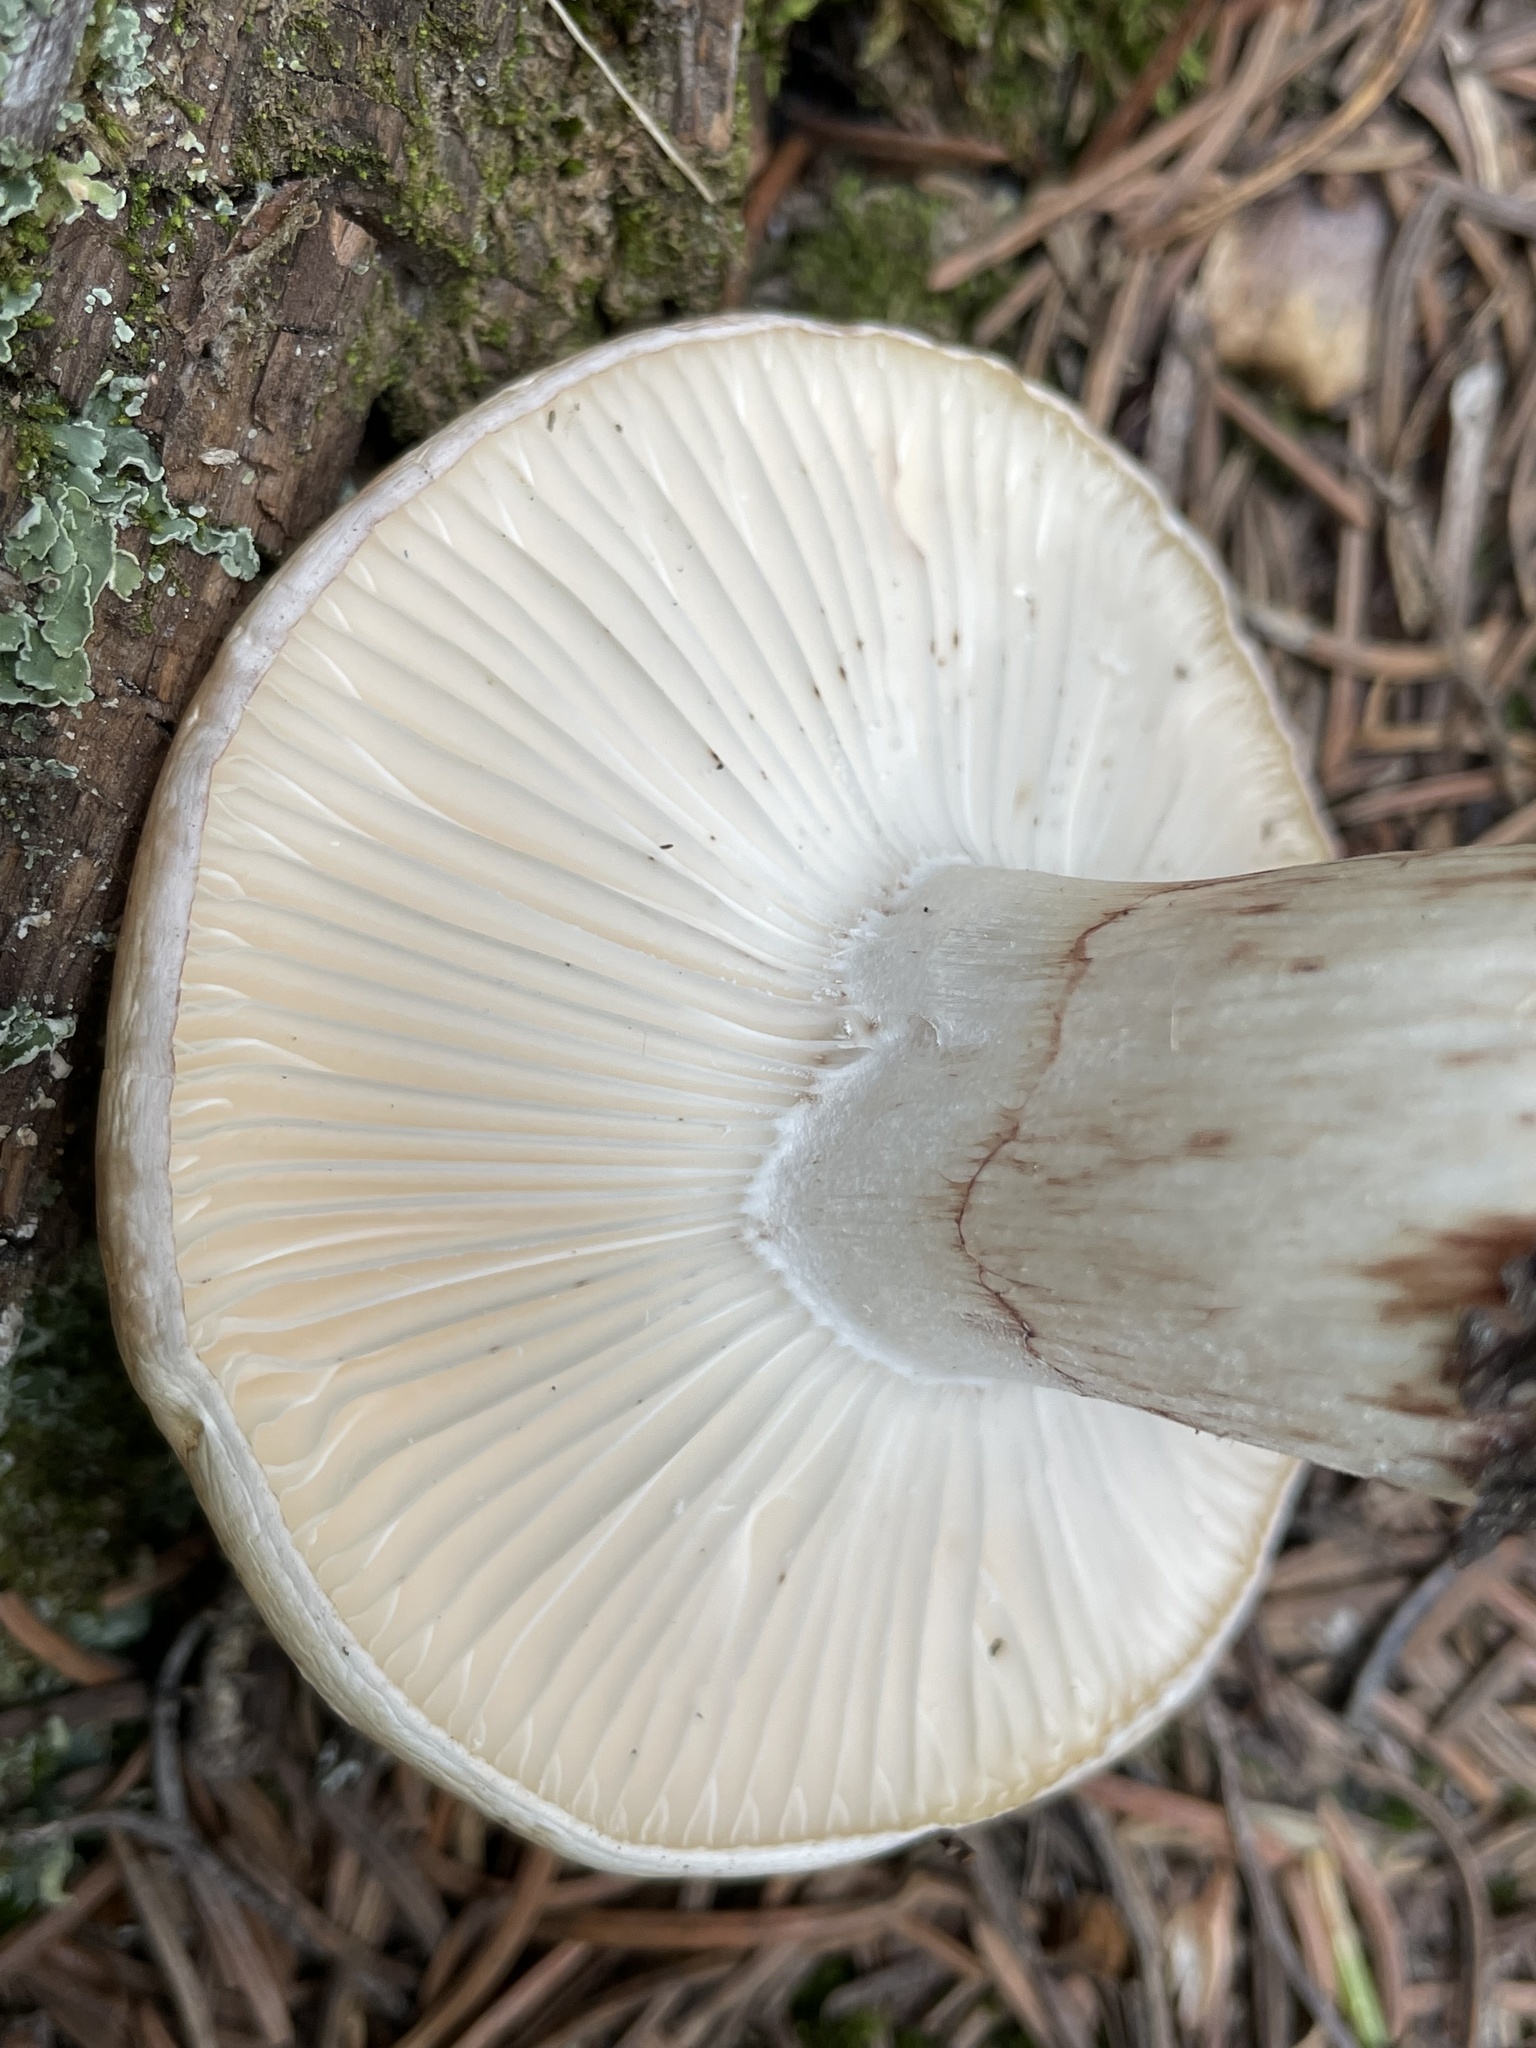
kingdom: Fungi
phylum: Basidiomycota
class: Agaricomycetes
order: Agaricales
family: Hygrophoraceae
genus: Hygrophorus
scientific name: Hygrophorus erubescens
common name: Blotched woodwax
